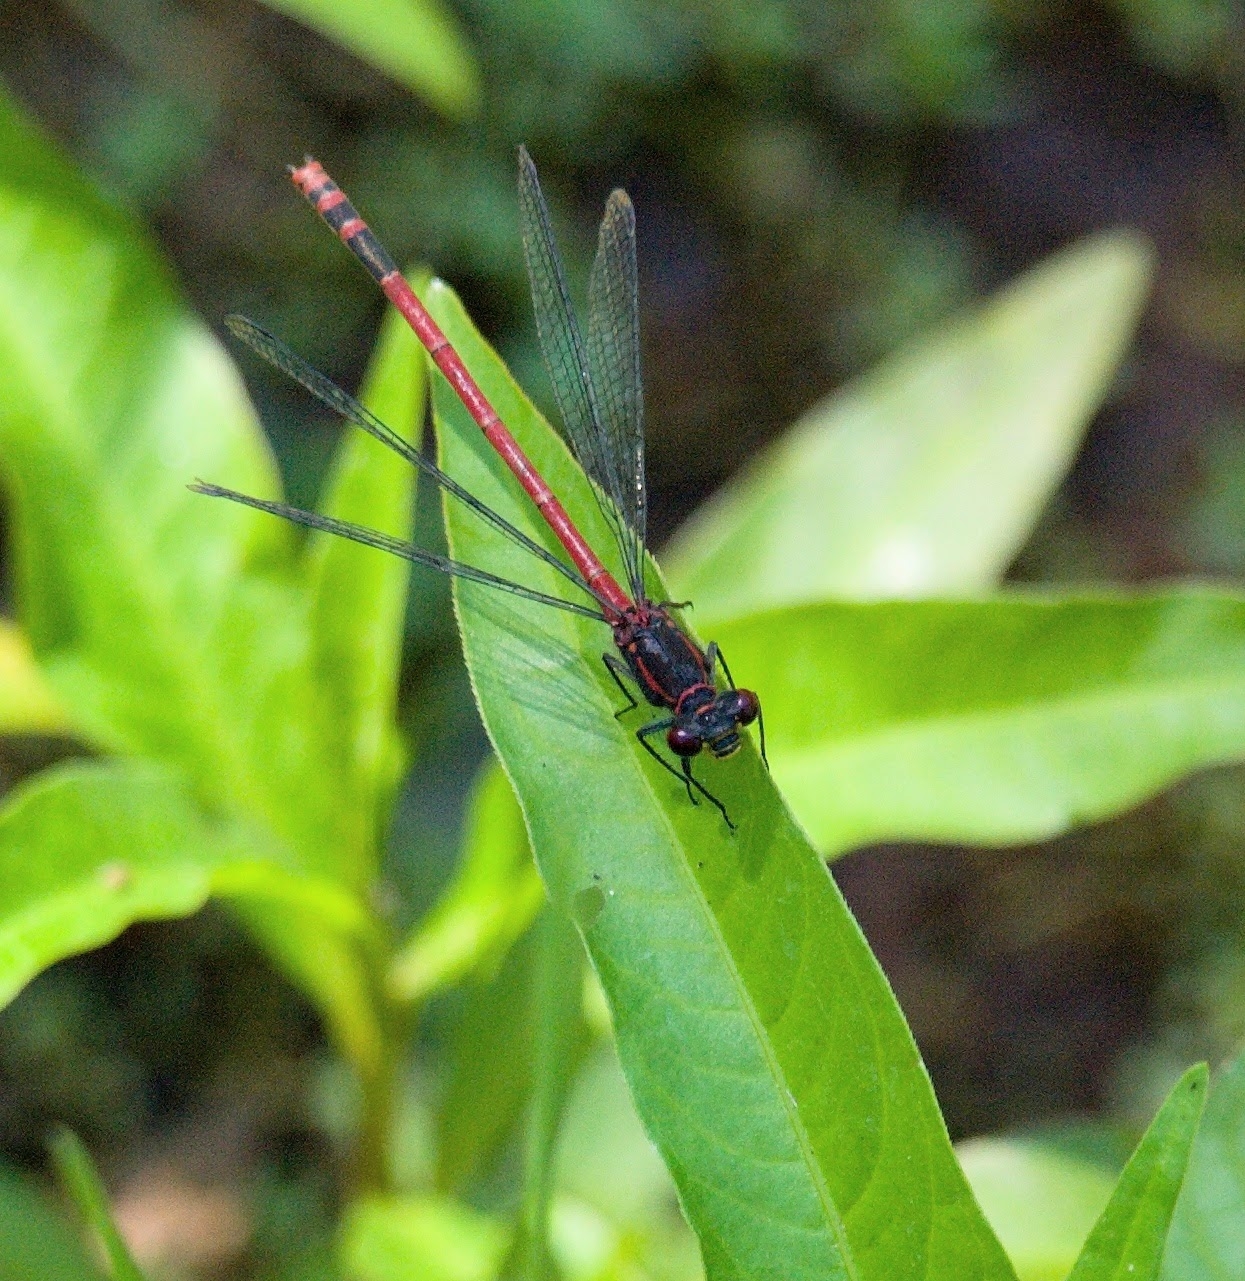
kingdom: Animalia
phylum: Arthropoda
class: Insecta
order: Odonata
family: Coenagrionidae
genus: Pyrrhosoma
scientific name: Pyrrhosoma nymphula
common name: Large red damsel
